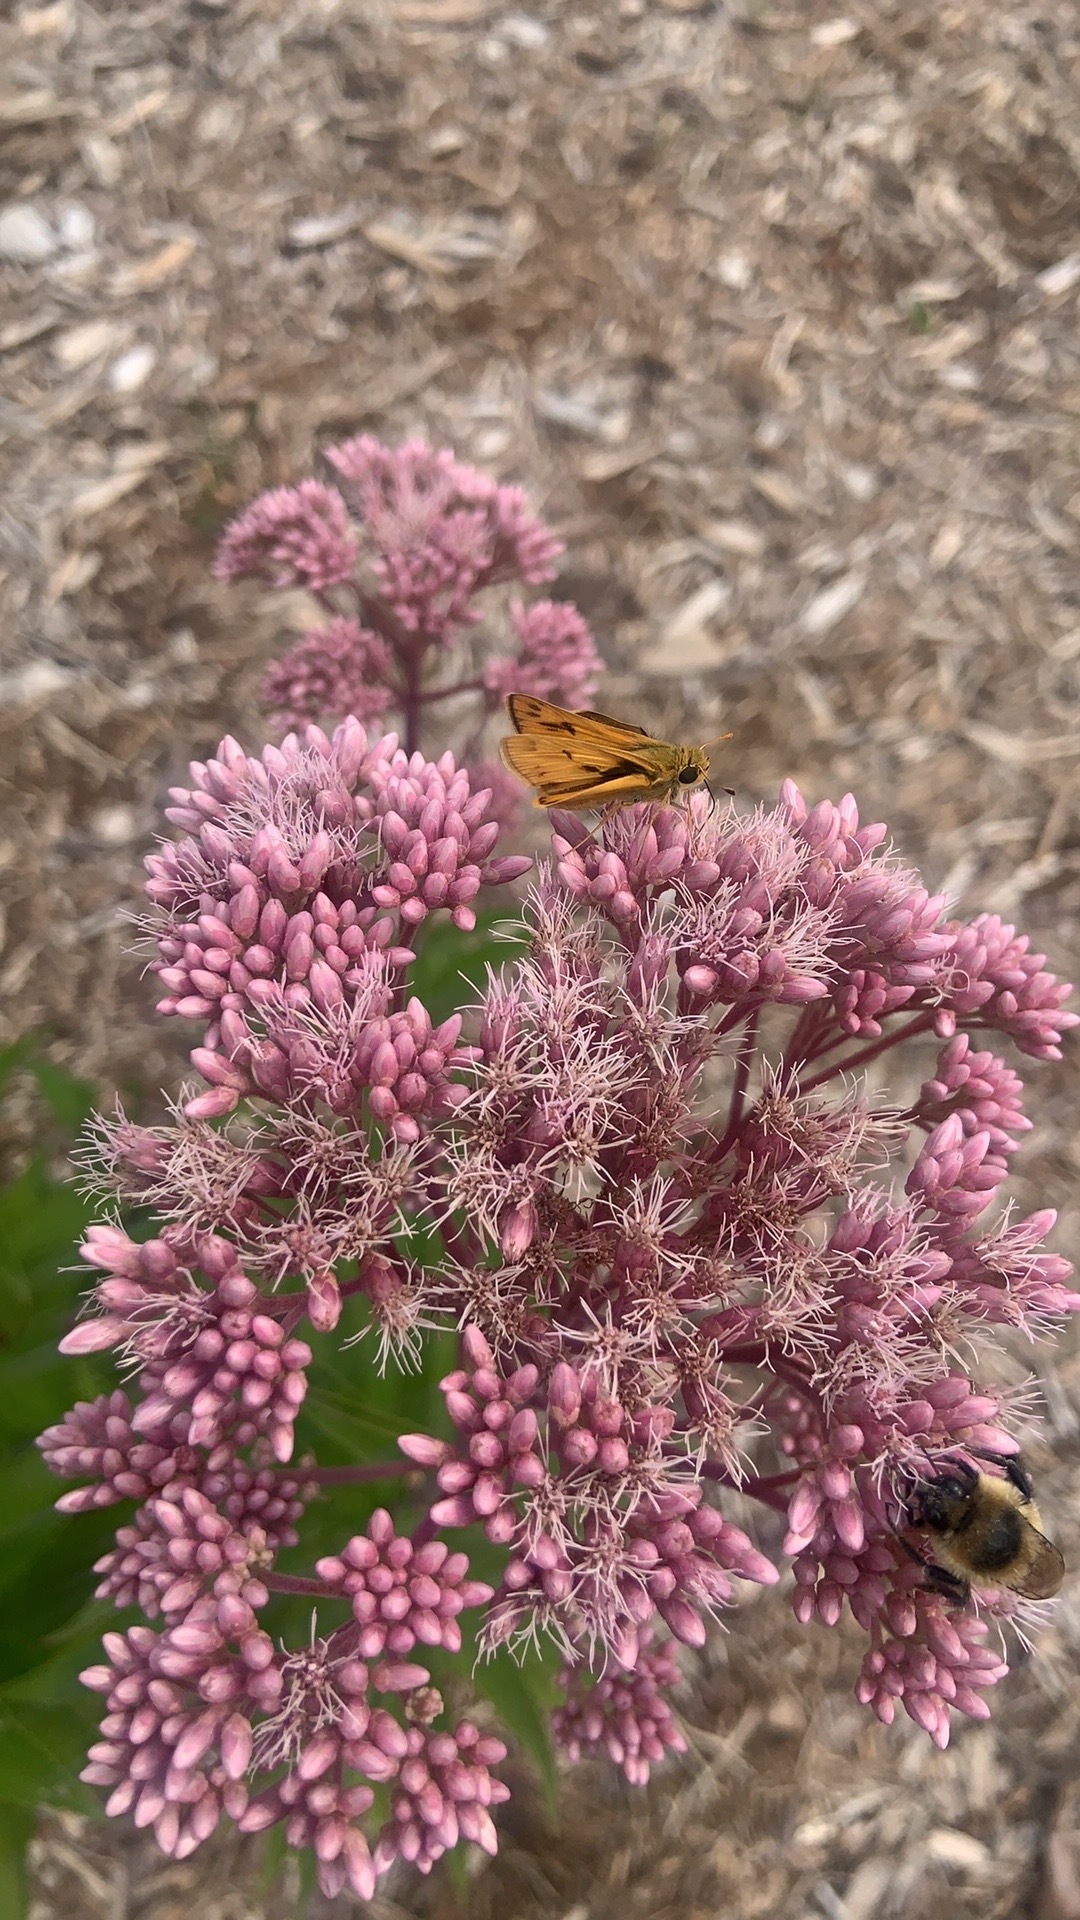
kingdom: Animalia
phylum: Arthropoda
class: Insecta
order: Lepidoptera
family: Hesperiidae
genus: Hylephila
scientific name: Hylephila phyleus
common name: Fiery skipper
